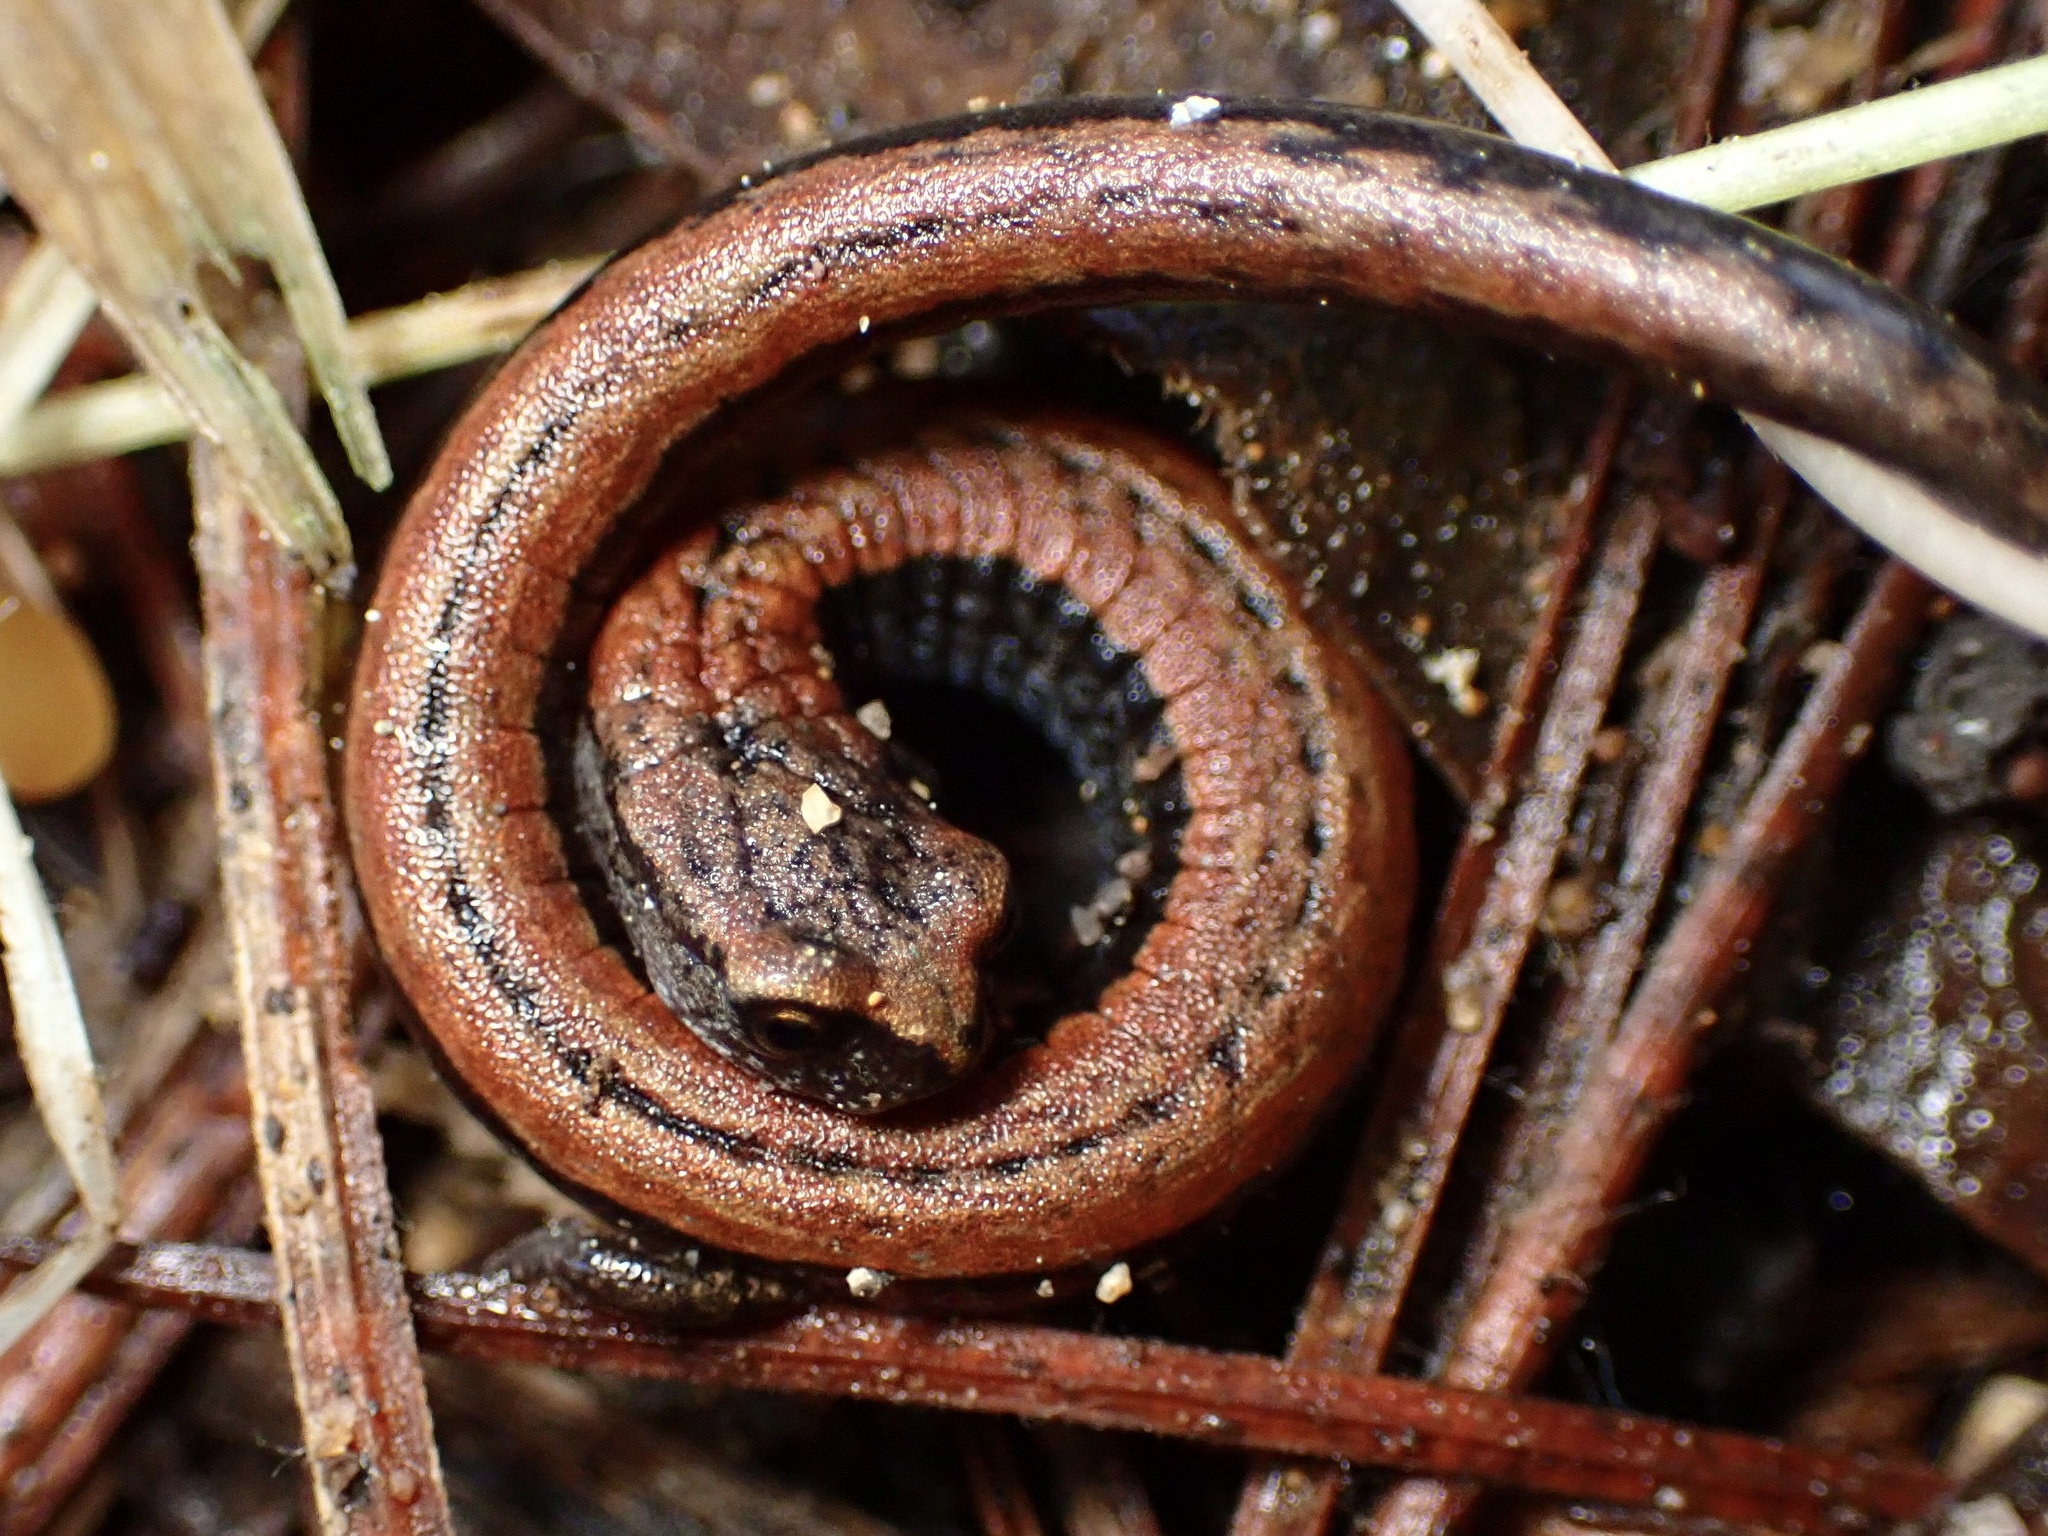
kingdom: Animalia
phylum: Chordata
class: Amphibia
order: Caudata
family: Plethodontidae
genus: Batrachoseps
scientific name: Batrachoseps attenuatus
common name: California slender salamander
